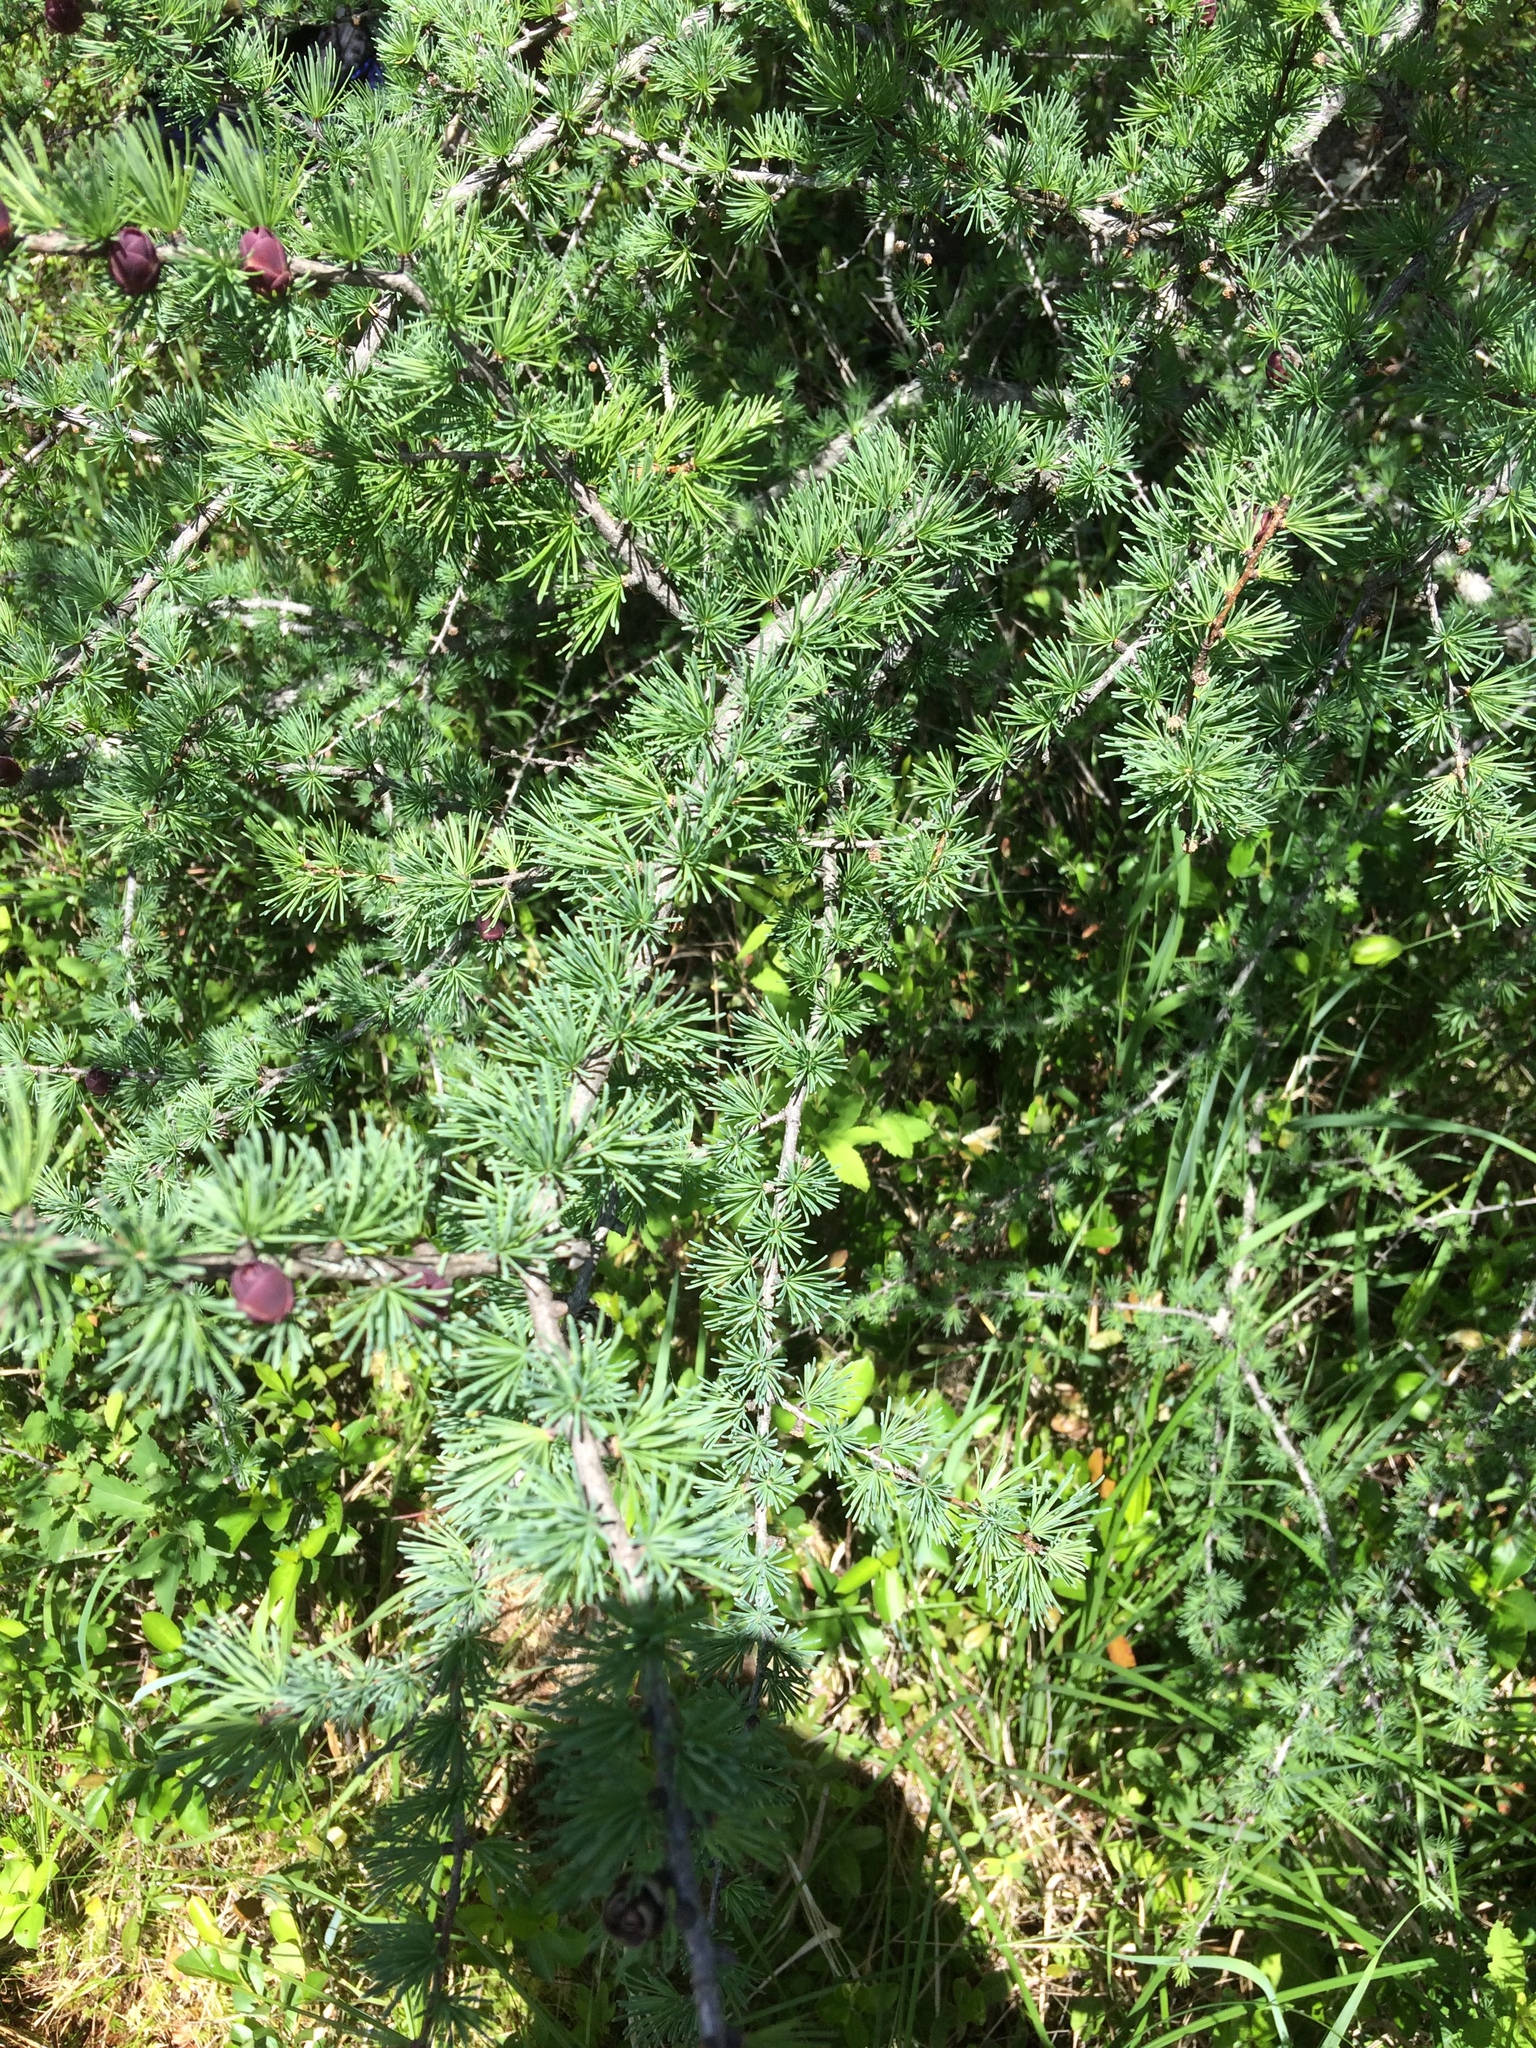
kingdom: Plantae
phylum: Tracheophyta
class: Pinopsida
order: Pinales
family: Pinaceae
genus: Larix
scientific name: Larix laricina
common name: American larch
